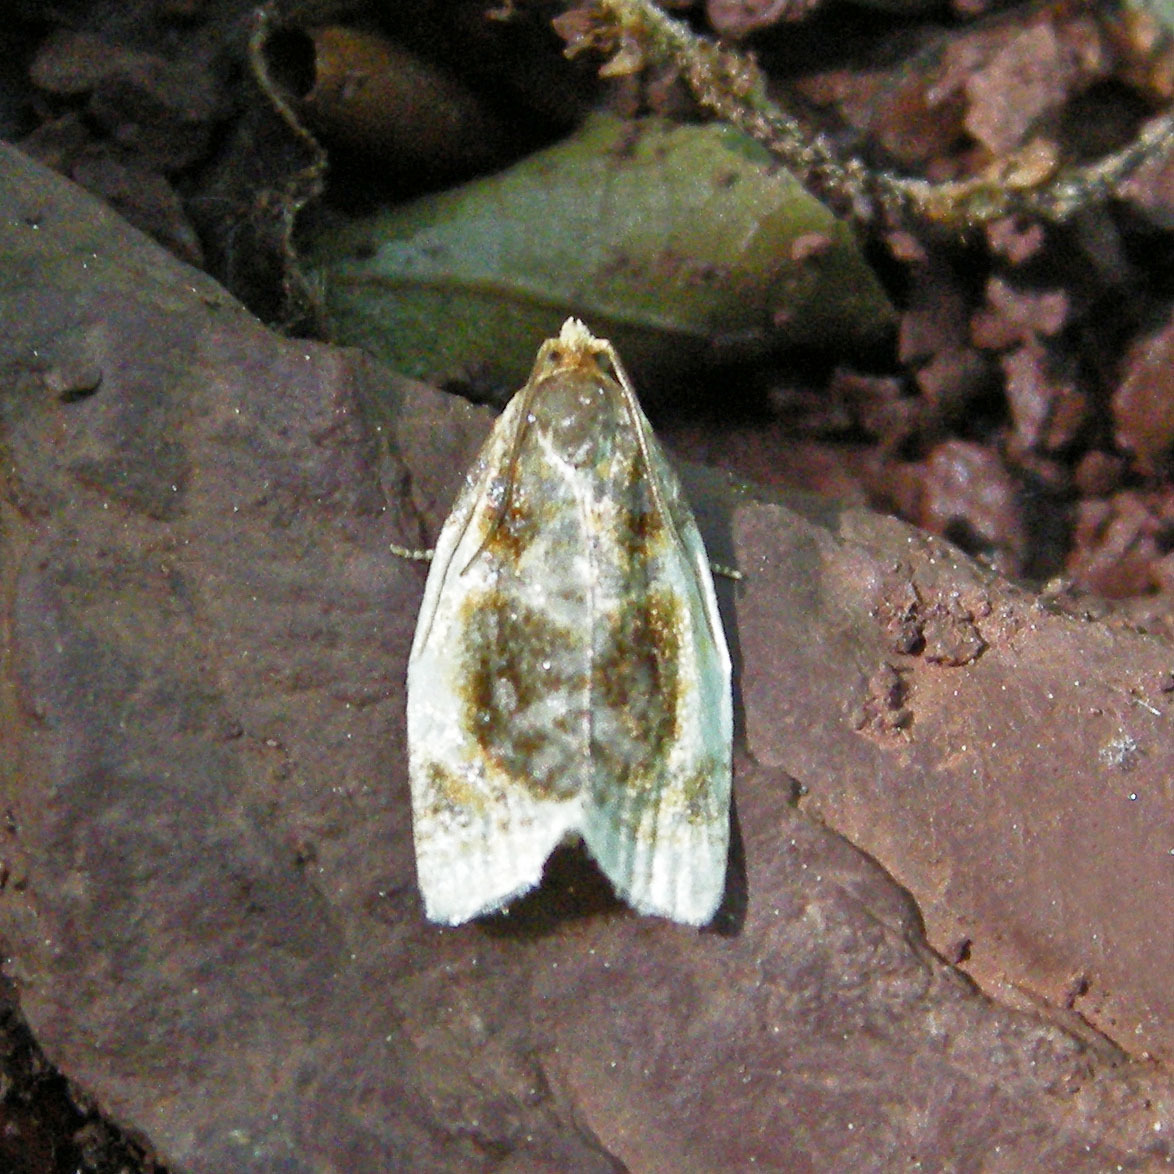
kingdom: Animalia
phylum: Arthropoda
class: Insecta
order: Lepidoptera
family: Tortricidae
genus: Clepsis
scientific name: Clepsis melaleucanus
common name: American apple tortrix
